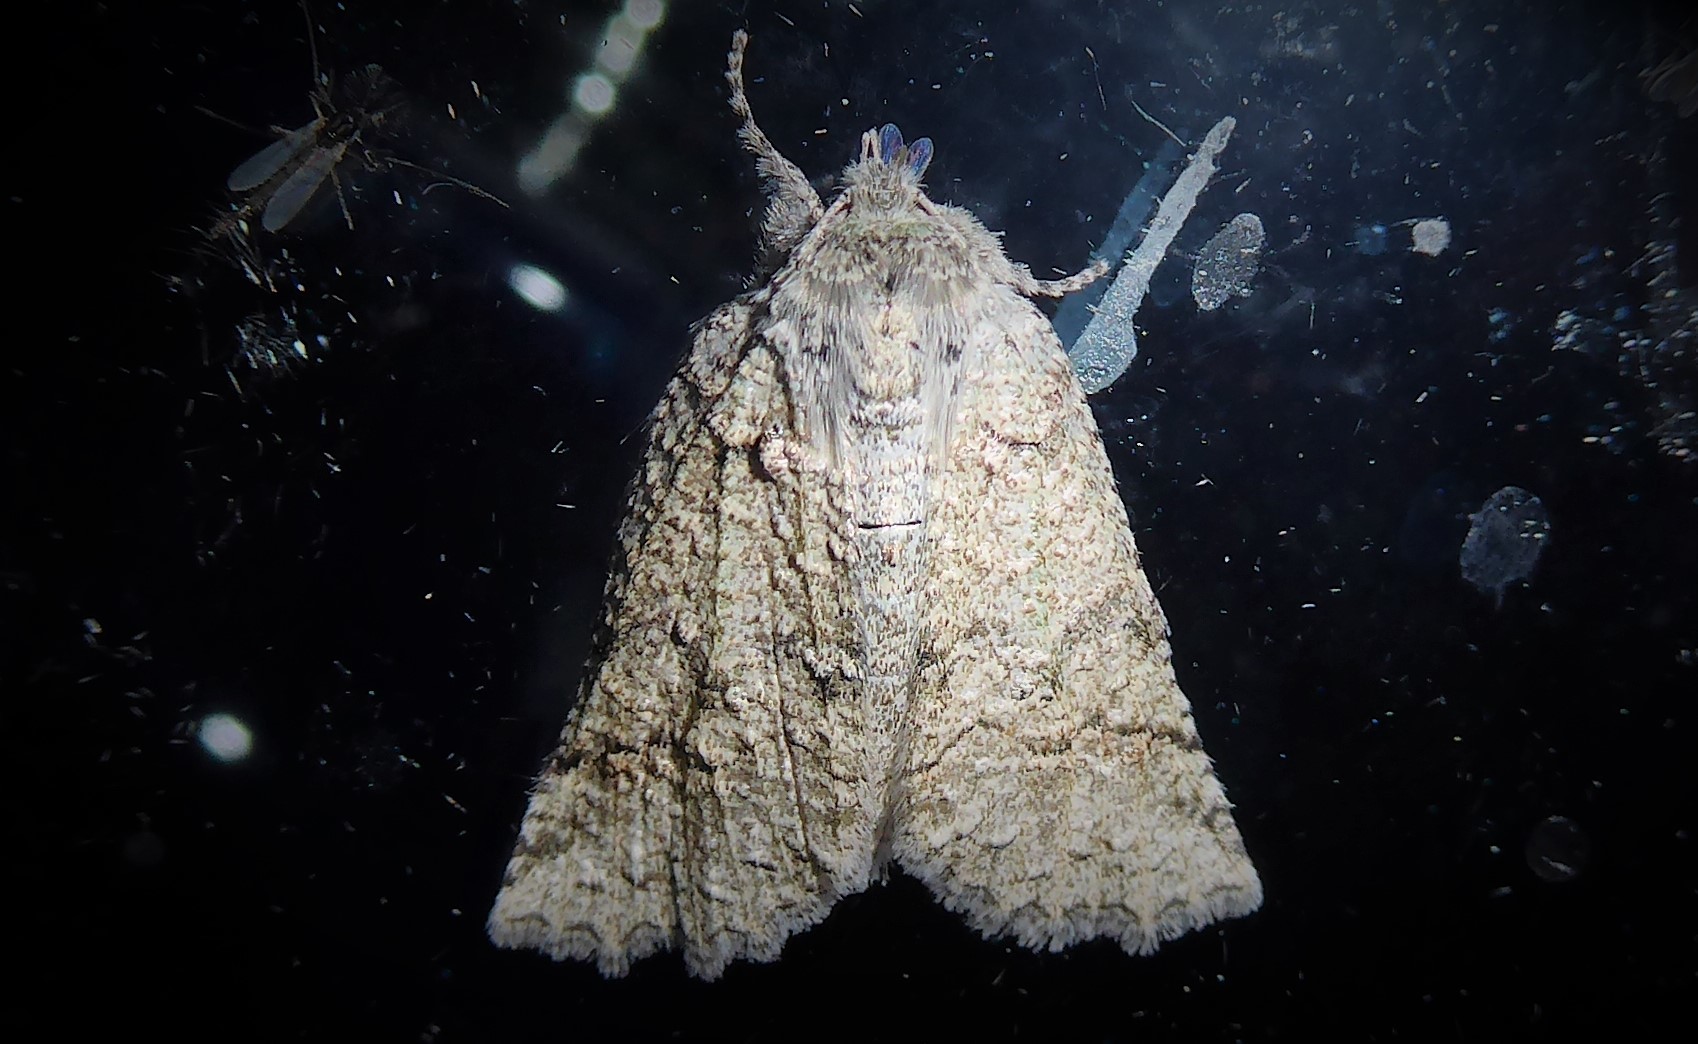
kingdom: Animalia
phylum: Arthropoda
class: Insecta
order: Lepidoptera
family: Geometridae
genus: Declana
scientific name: Declana floccosa
